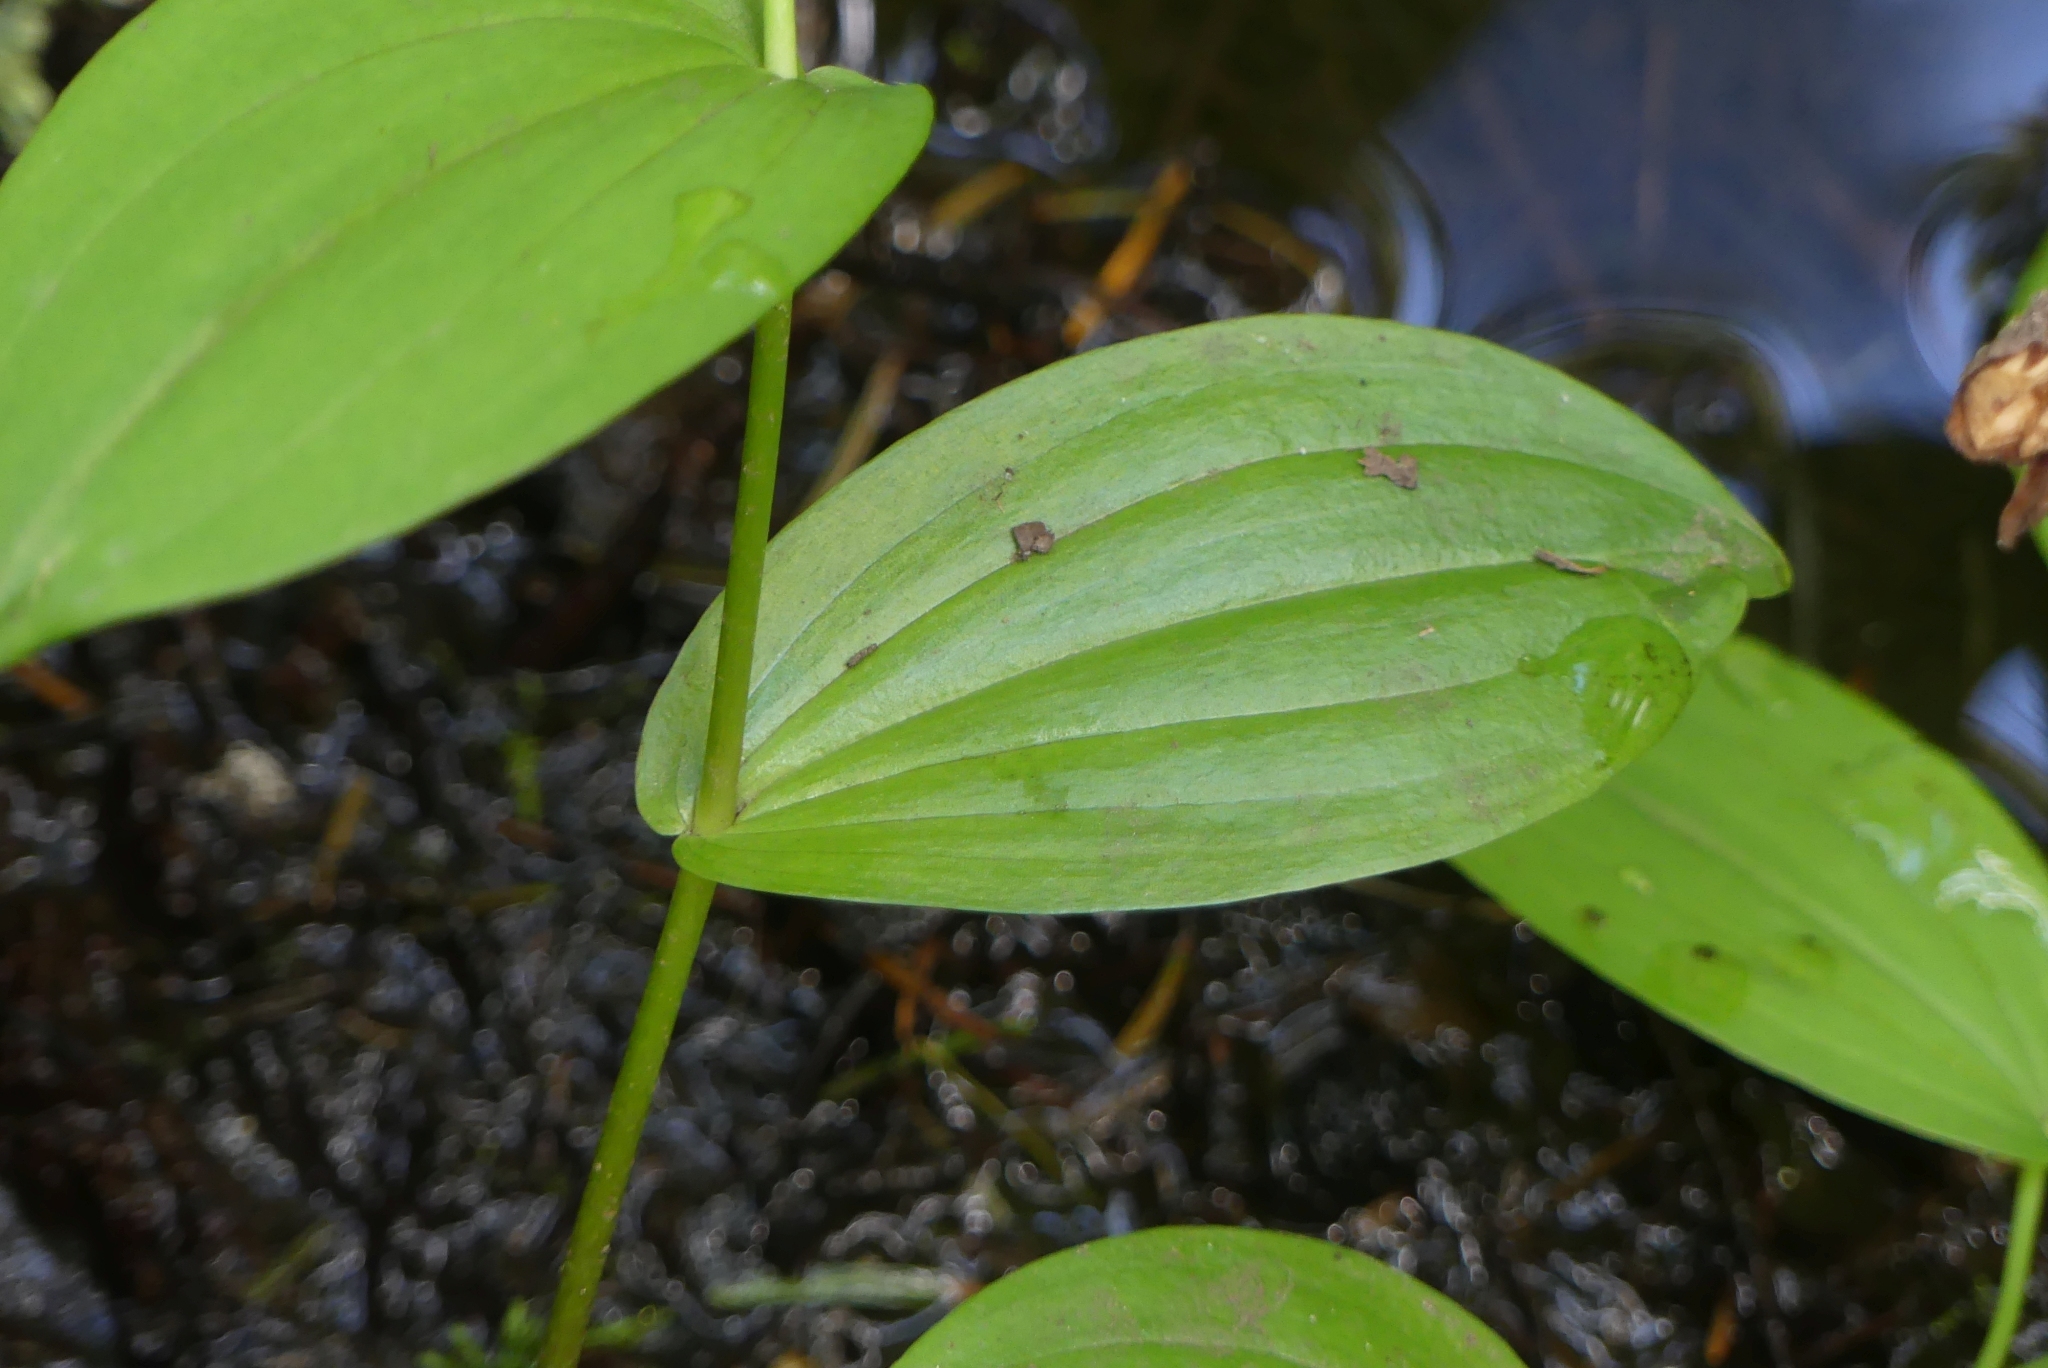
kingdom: Plantae
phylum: Tracheophyta
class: Liliopsida
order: Liliales
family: Liliaceae
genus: Streptopus
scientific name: Streptopus amplexifolius
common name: Clasp twisted stalk
